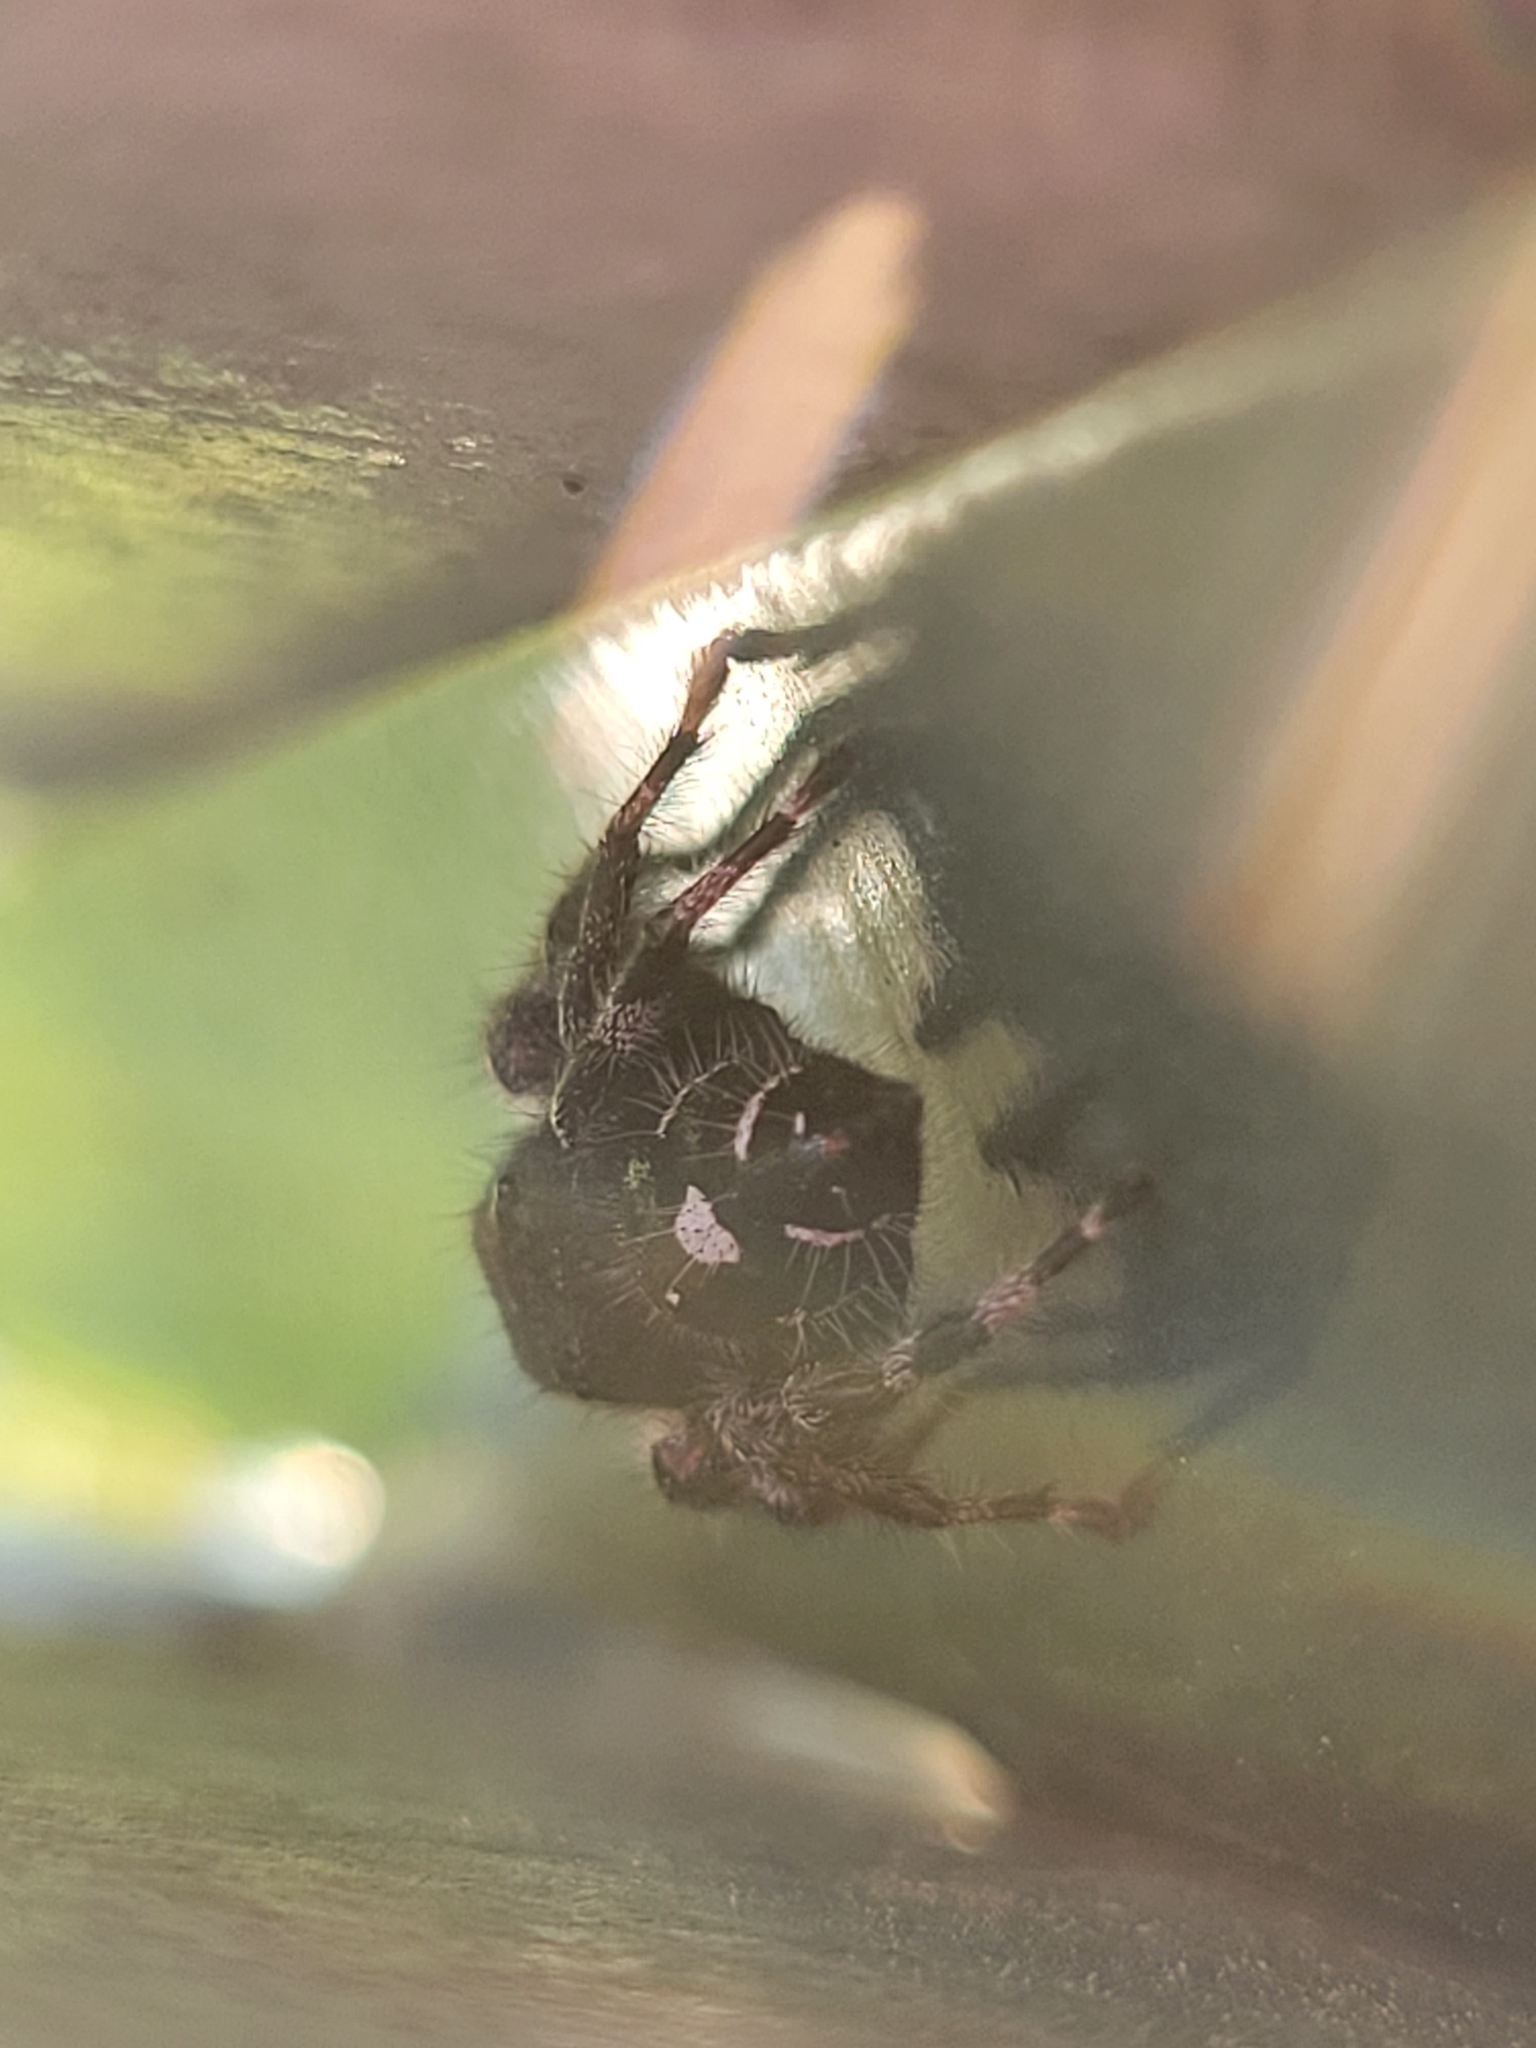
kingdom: Animalia
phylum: Arthropoda
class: Arachnida
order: Araneae
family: Salticidae
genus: Phidippus
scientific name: Phidippus audax
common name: Bold jumper
